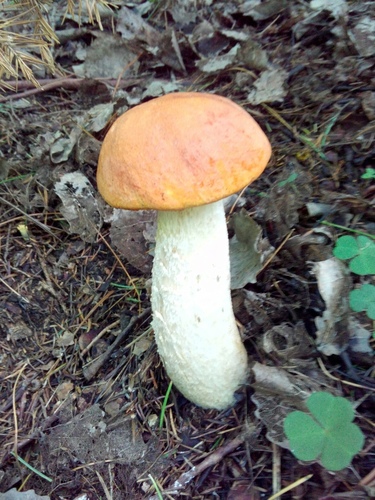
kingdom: Fungi
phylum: Basidiomycota
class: Agaricomycetes
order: Boletales
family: Boletaceae
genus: Leccinum
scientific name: Leccinum albostipitatum
